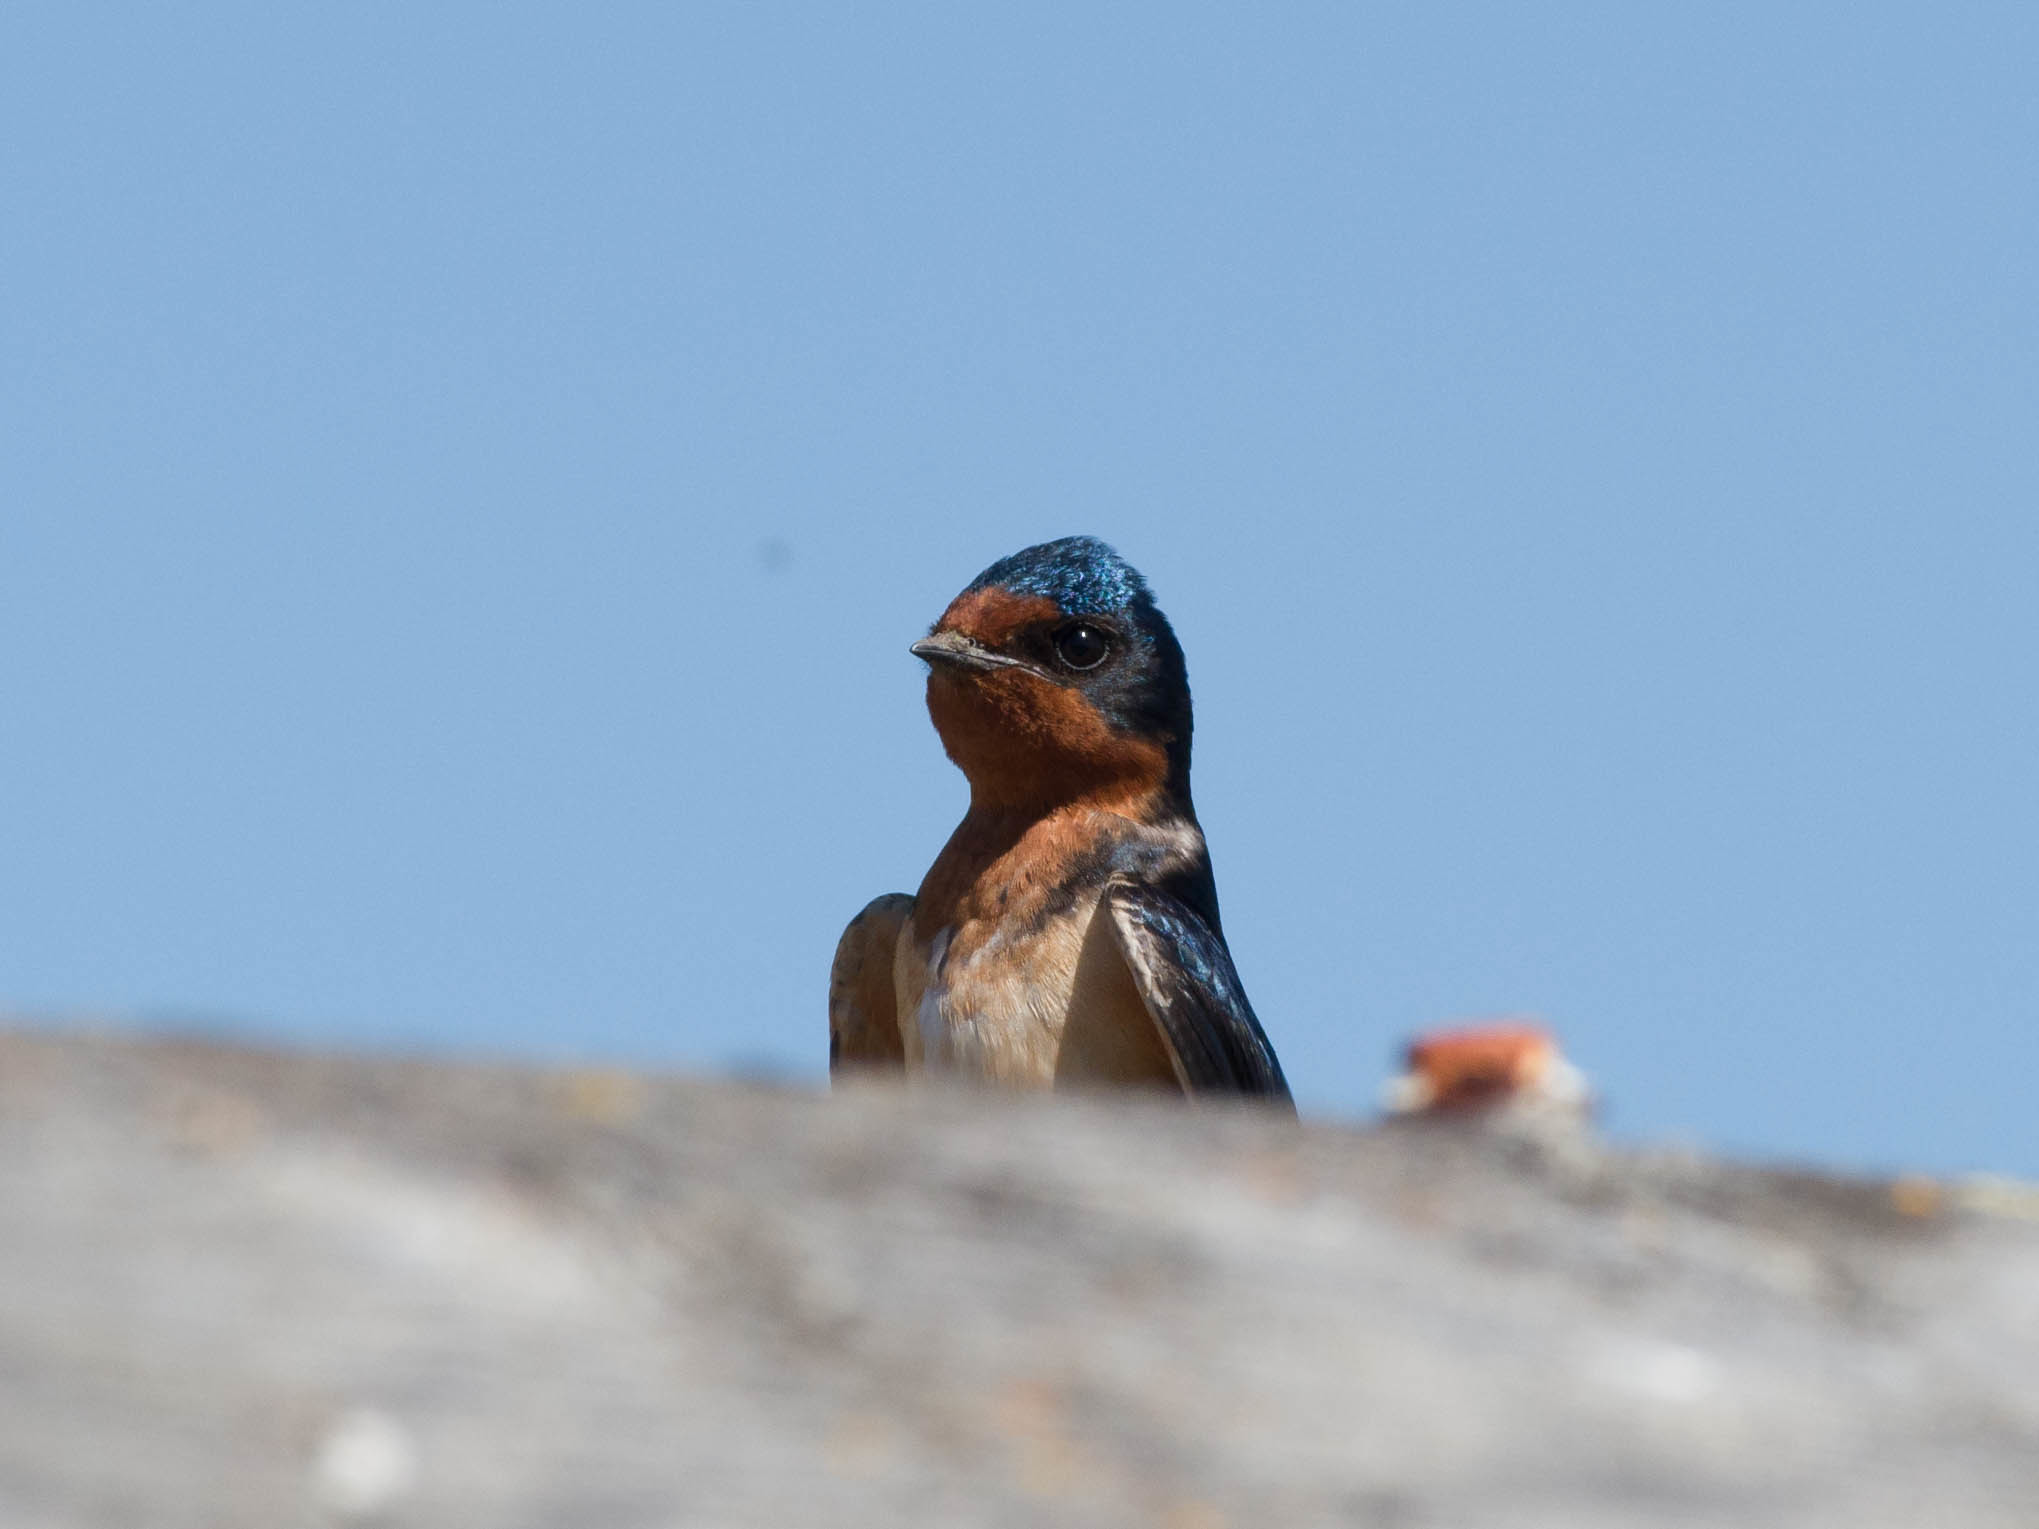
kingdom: Animalia
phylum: Chordata
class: Aves
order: Passeriformes
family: Hirundinidae
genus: Hirundo
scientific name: Hirundo rustica
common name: Barn swallow
